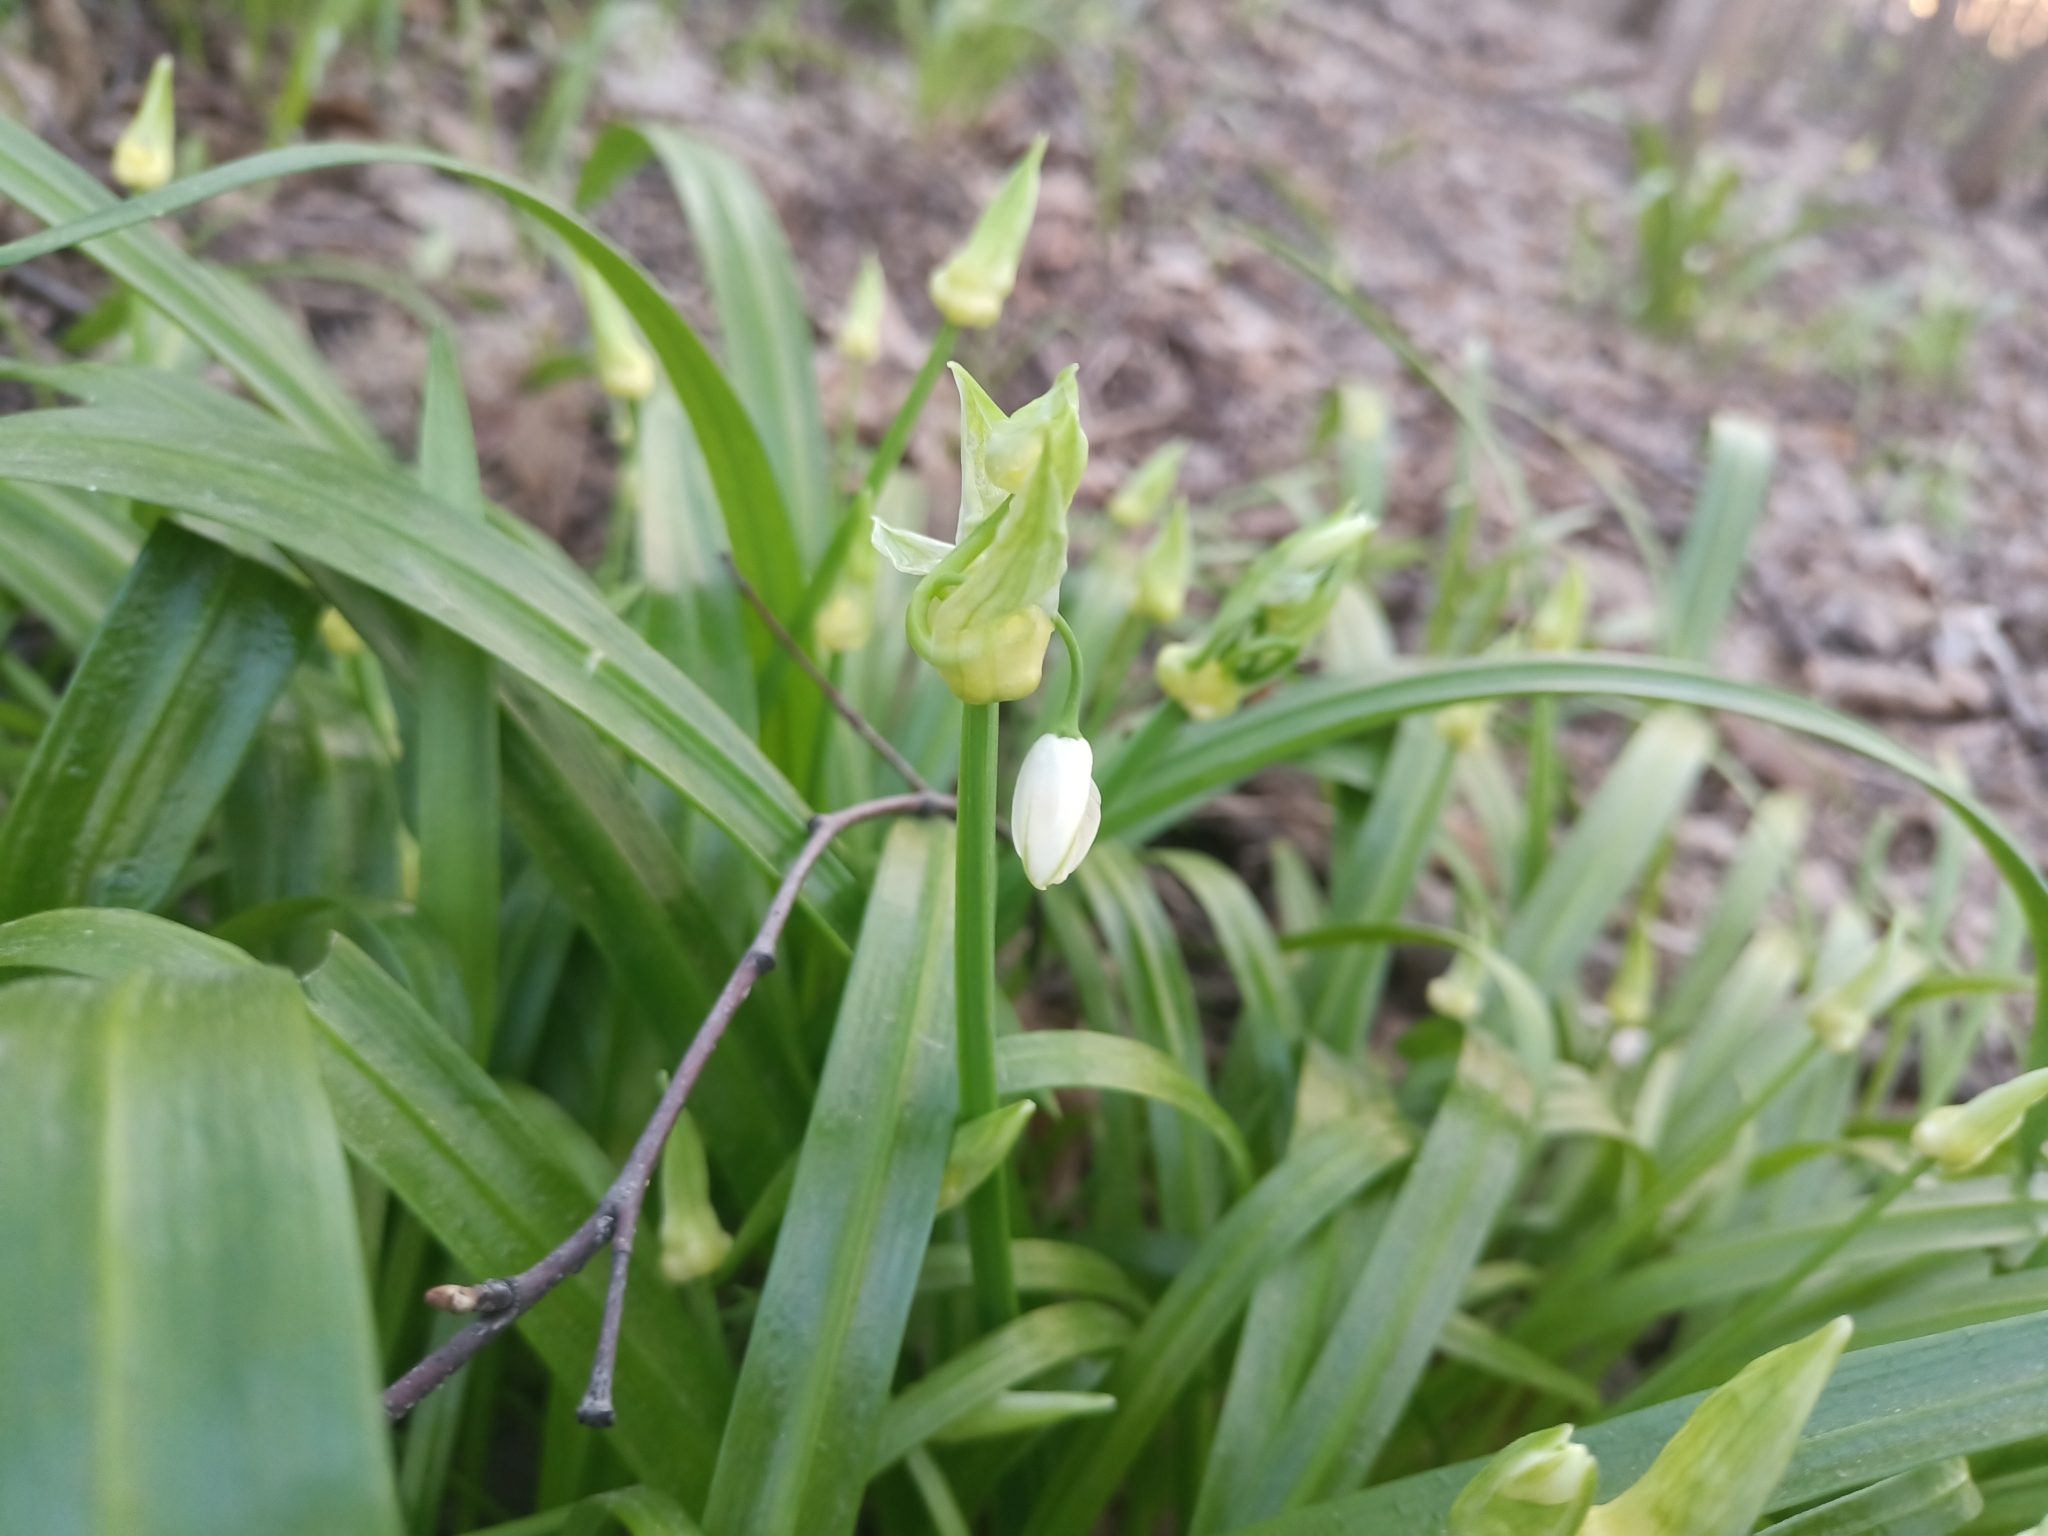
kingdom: Plantae
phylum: Tracheophyta
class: Liliopsida
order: Asparagales
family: Amaryllidaceae
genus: Allium
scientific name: Allium paradoxum
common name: Few-flowered garlic
